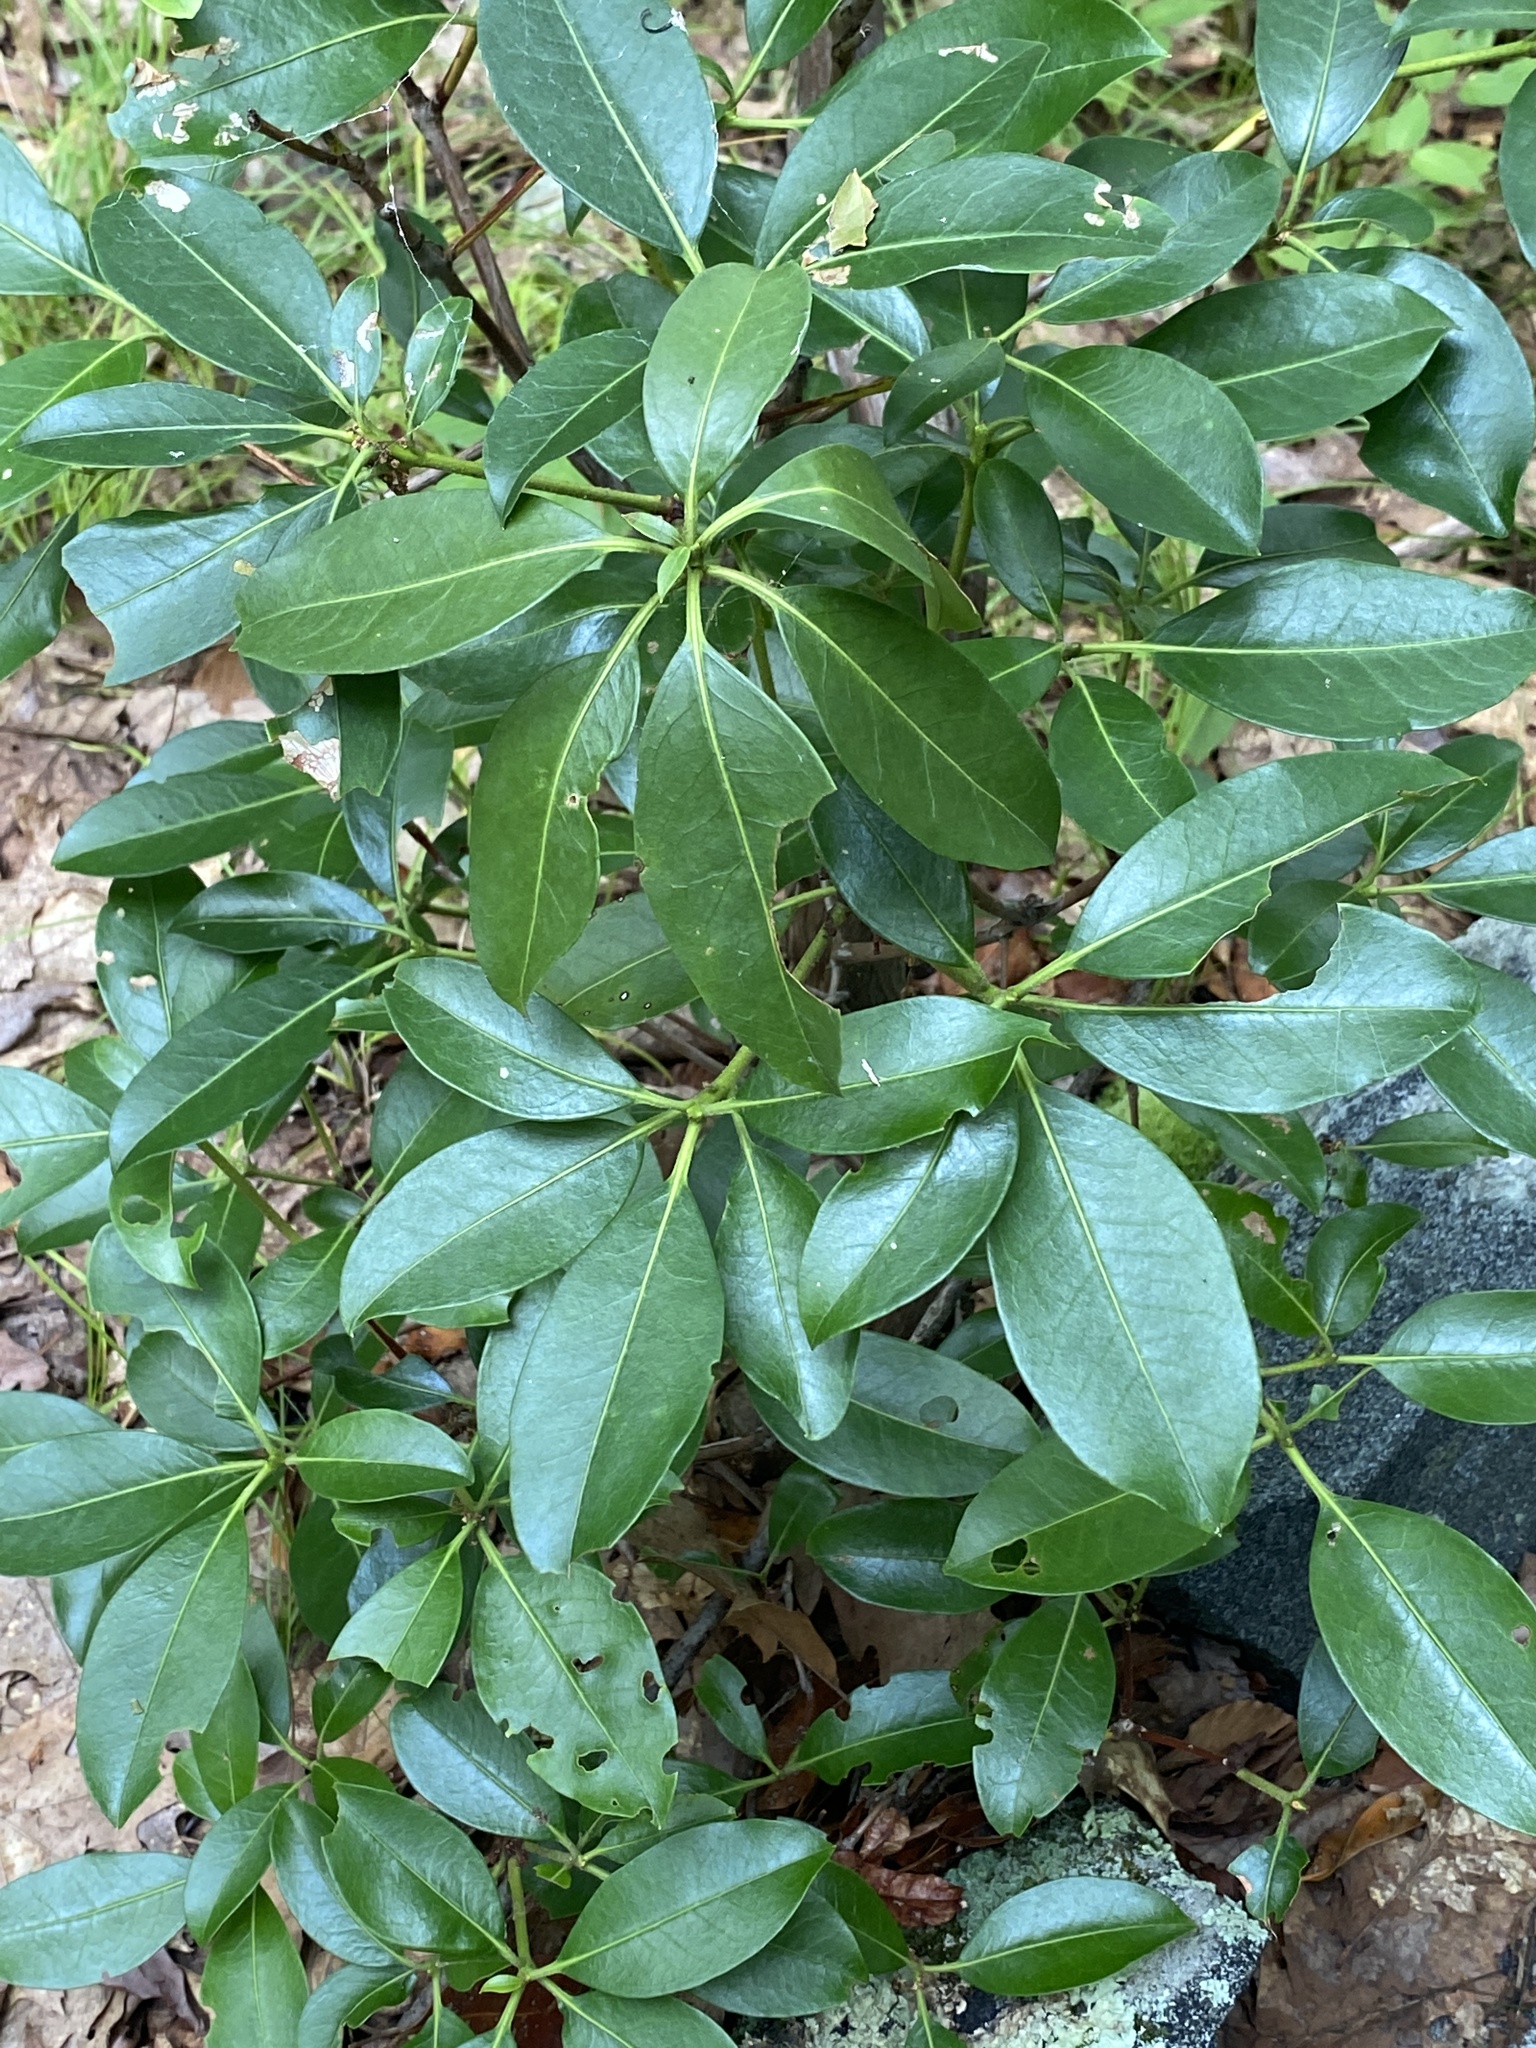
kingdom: Plantae
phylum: Tracheophyta
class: Magnoliopsida
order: Ericales
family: Ericaceae
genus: Kalmia
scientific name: Kalmia latifolia
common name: Mountain-laurel
